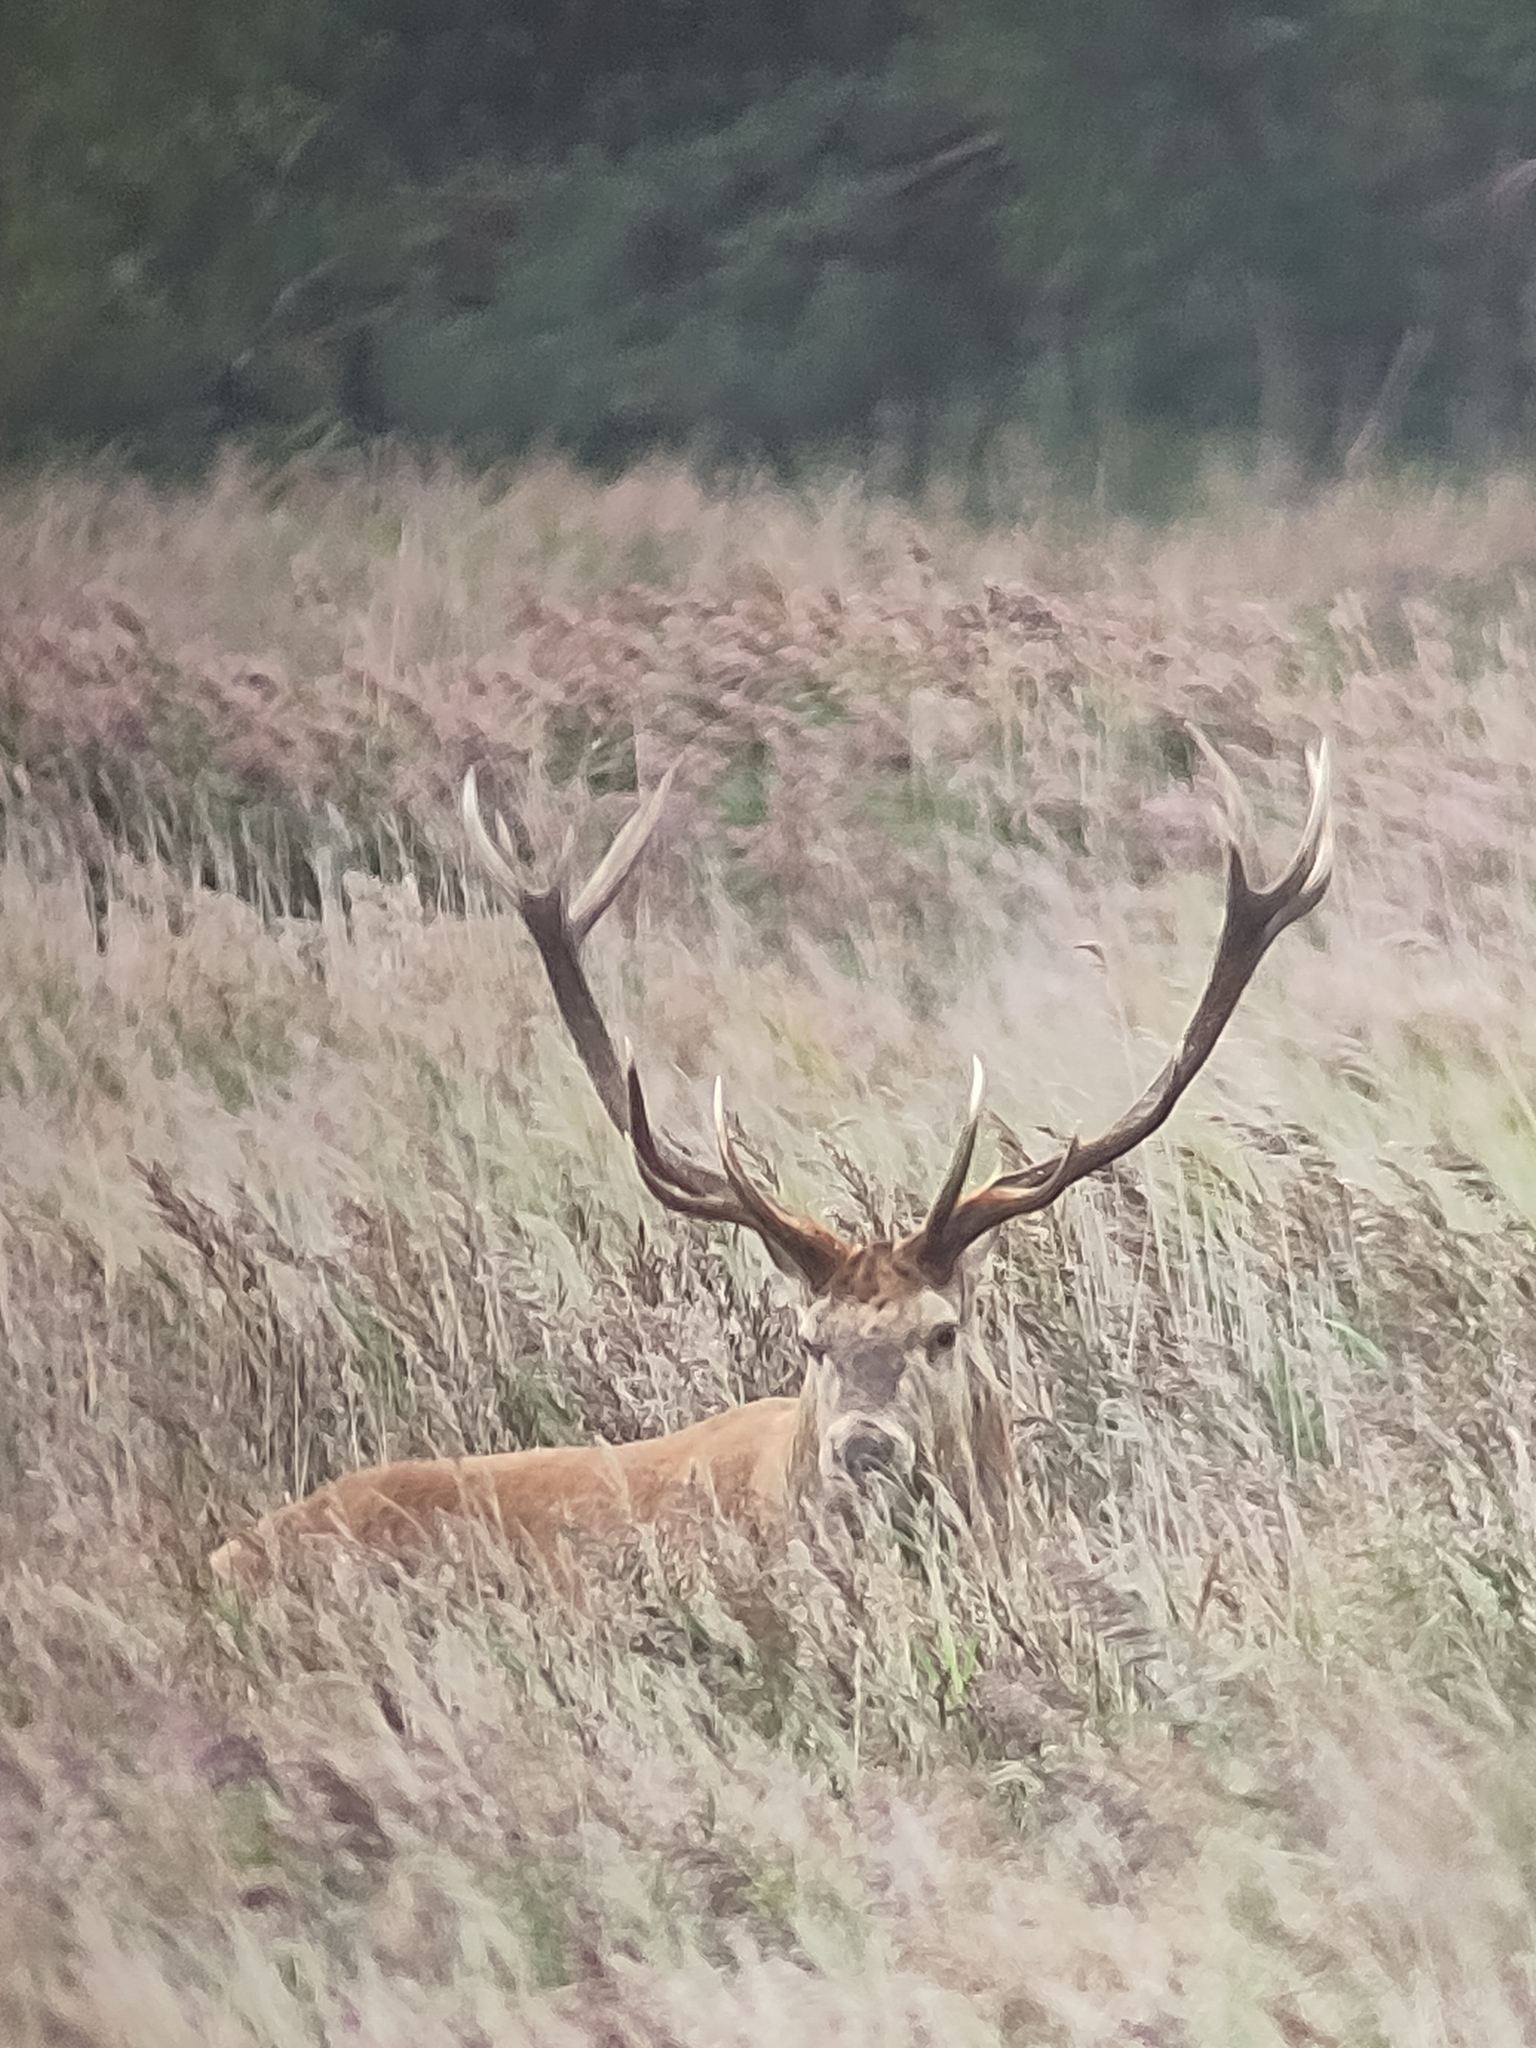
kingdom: Animalia
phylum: Chordata
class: Mammalia
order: Artiodactyla
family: Cervidae
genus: Cervus
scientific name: Cervus elaphus
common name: Red deer
